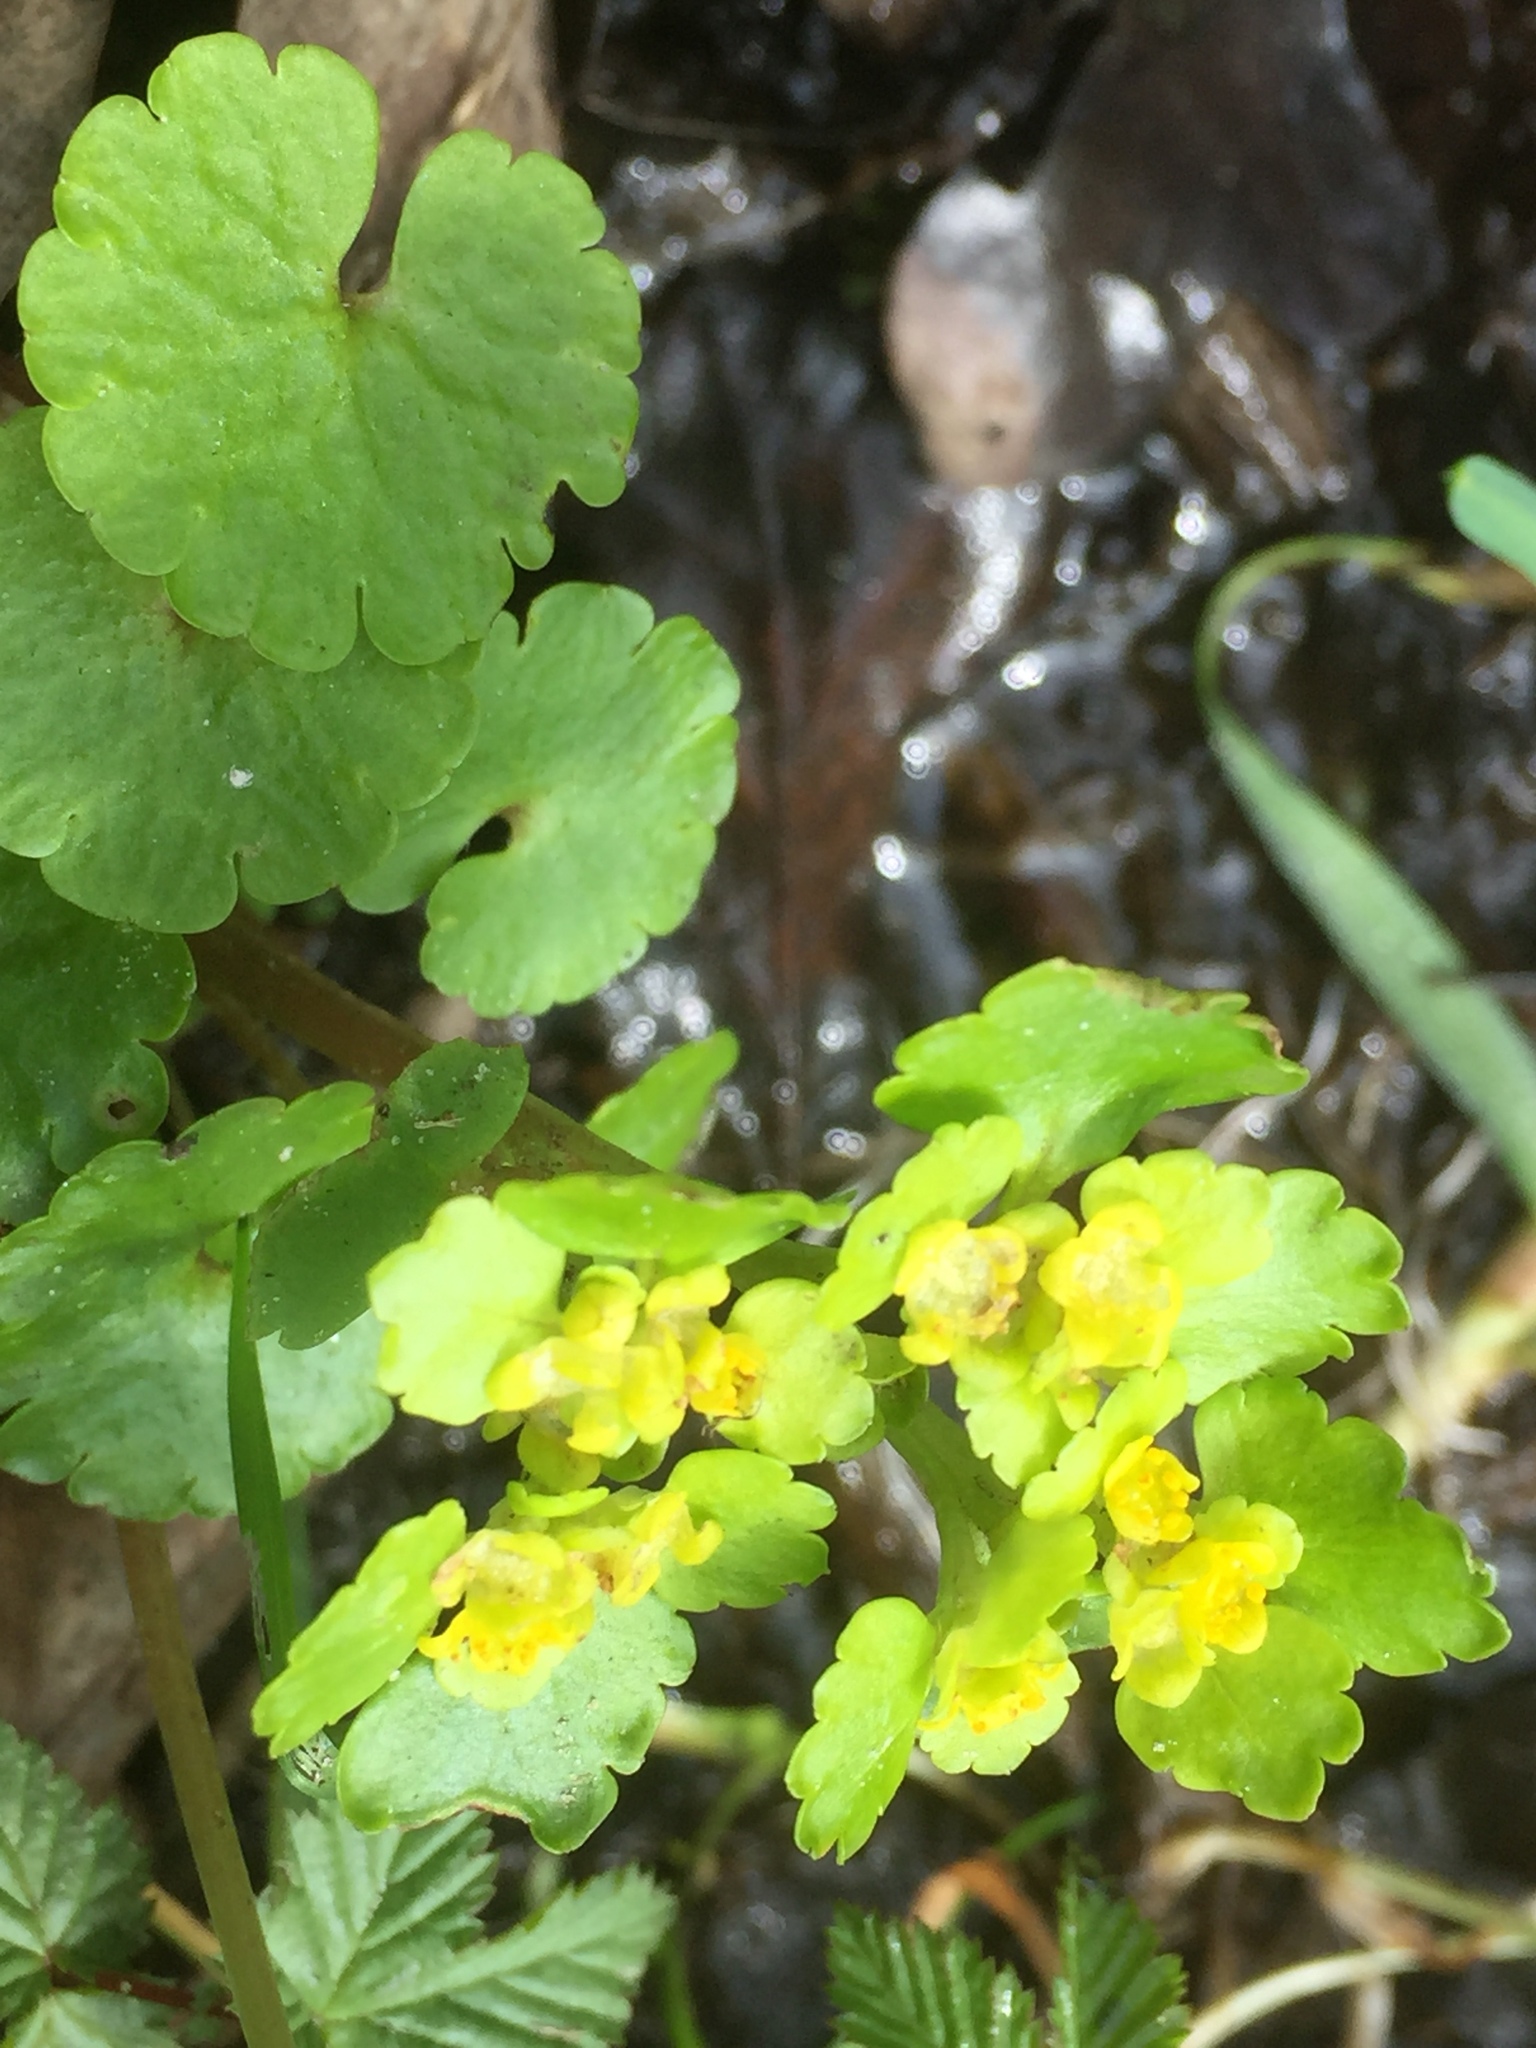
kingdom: Plantae
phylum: Tracheophyta
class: Magnoliopsida
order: Saxifragales
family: Saxifragaceae
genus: Chrysosplenium
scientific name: Chrysosplenium alternifolium
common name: Alternate-leaved golden-saxifrage
